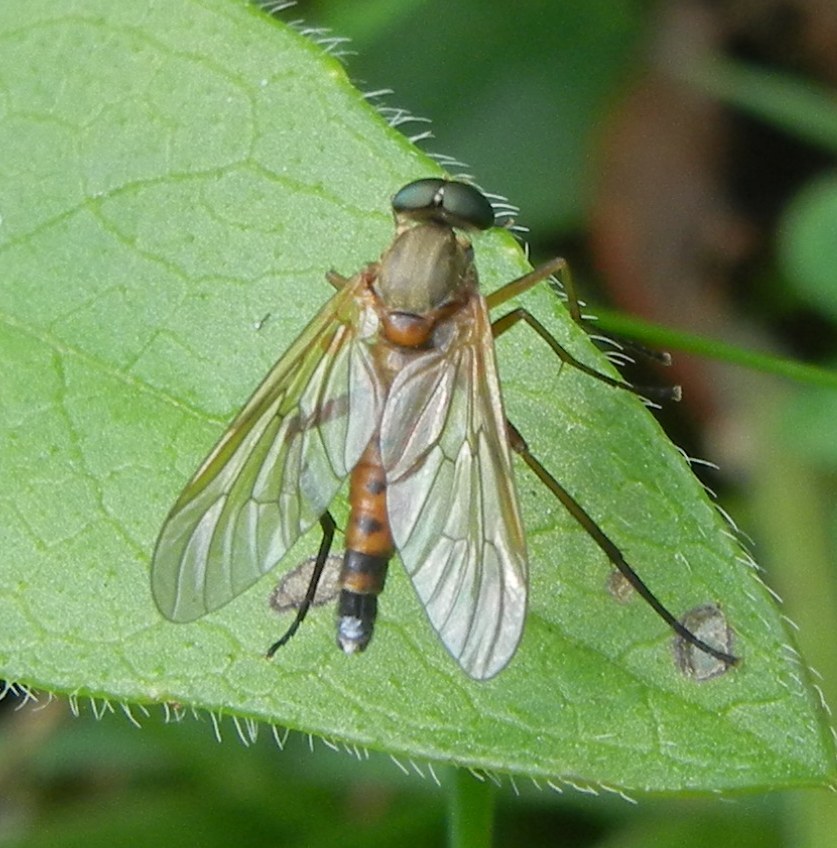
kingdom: Animalia
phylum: Arthropoda
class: Insecta
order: Diptera
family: Rhagionidae
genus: Rhagio
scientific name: Rhagio tringaria
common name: Marsh snipefly
